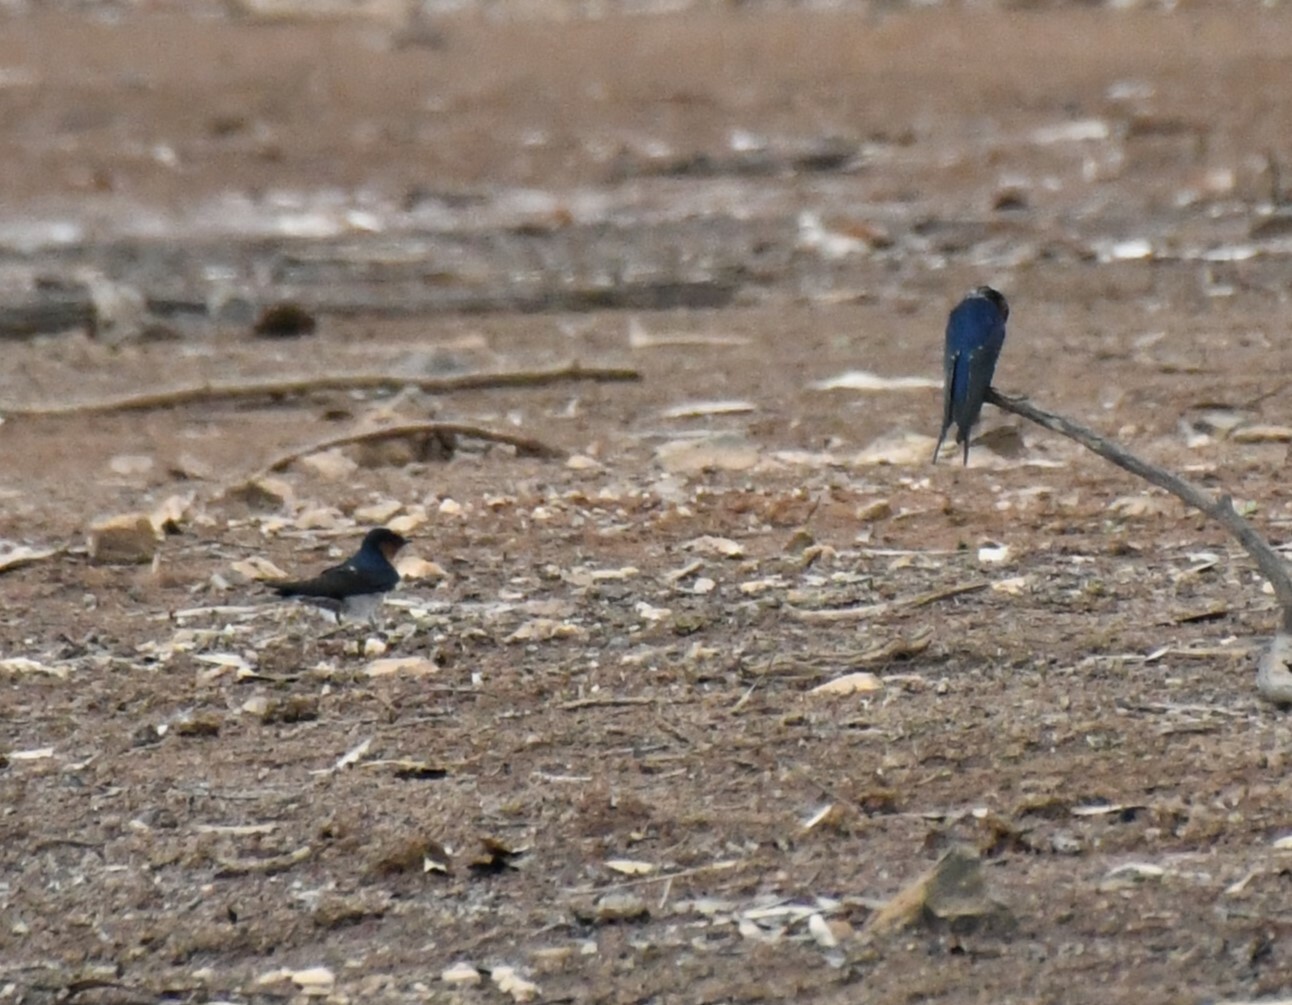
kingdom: Animalia
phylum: Chordata
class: Aves
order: Passeriformes
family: Hirundinidae
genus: Hirundo
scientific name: Hirundo neoxena
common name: Welcome swallow
